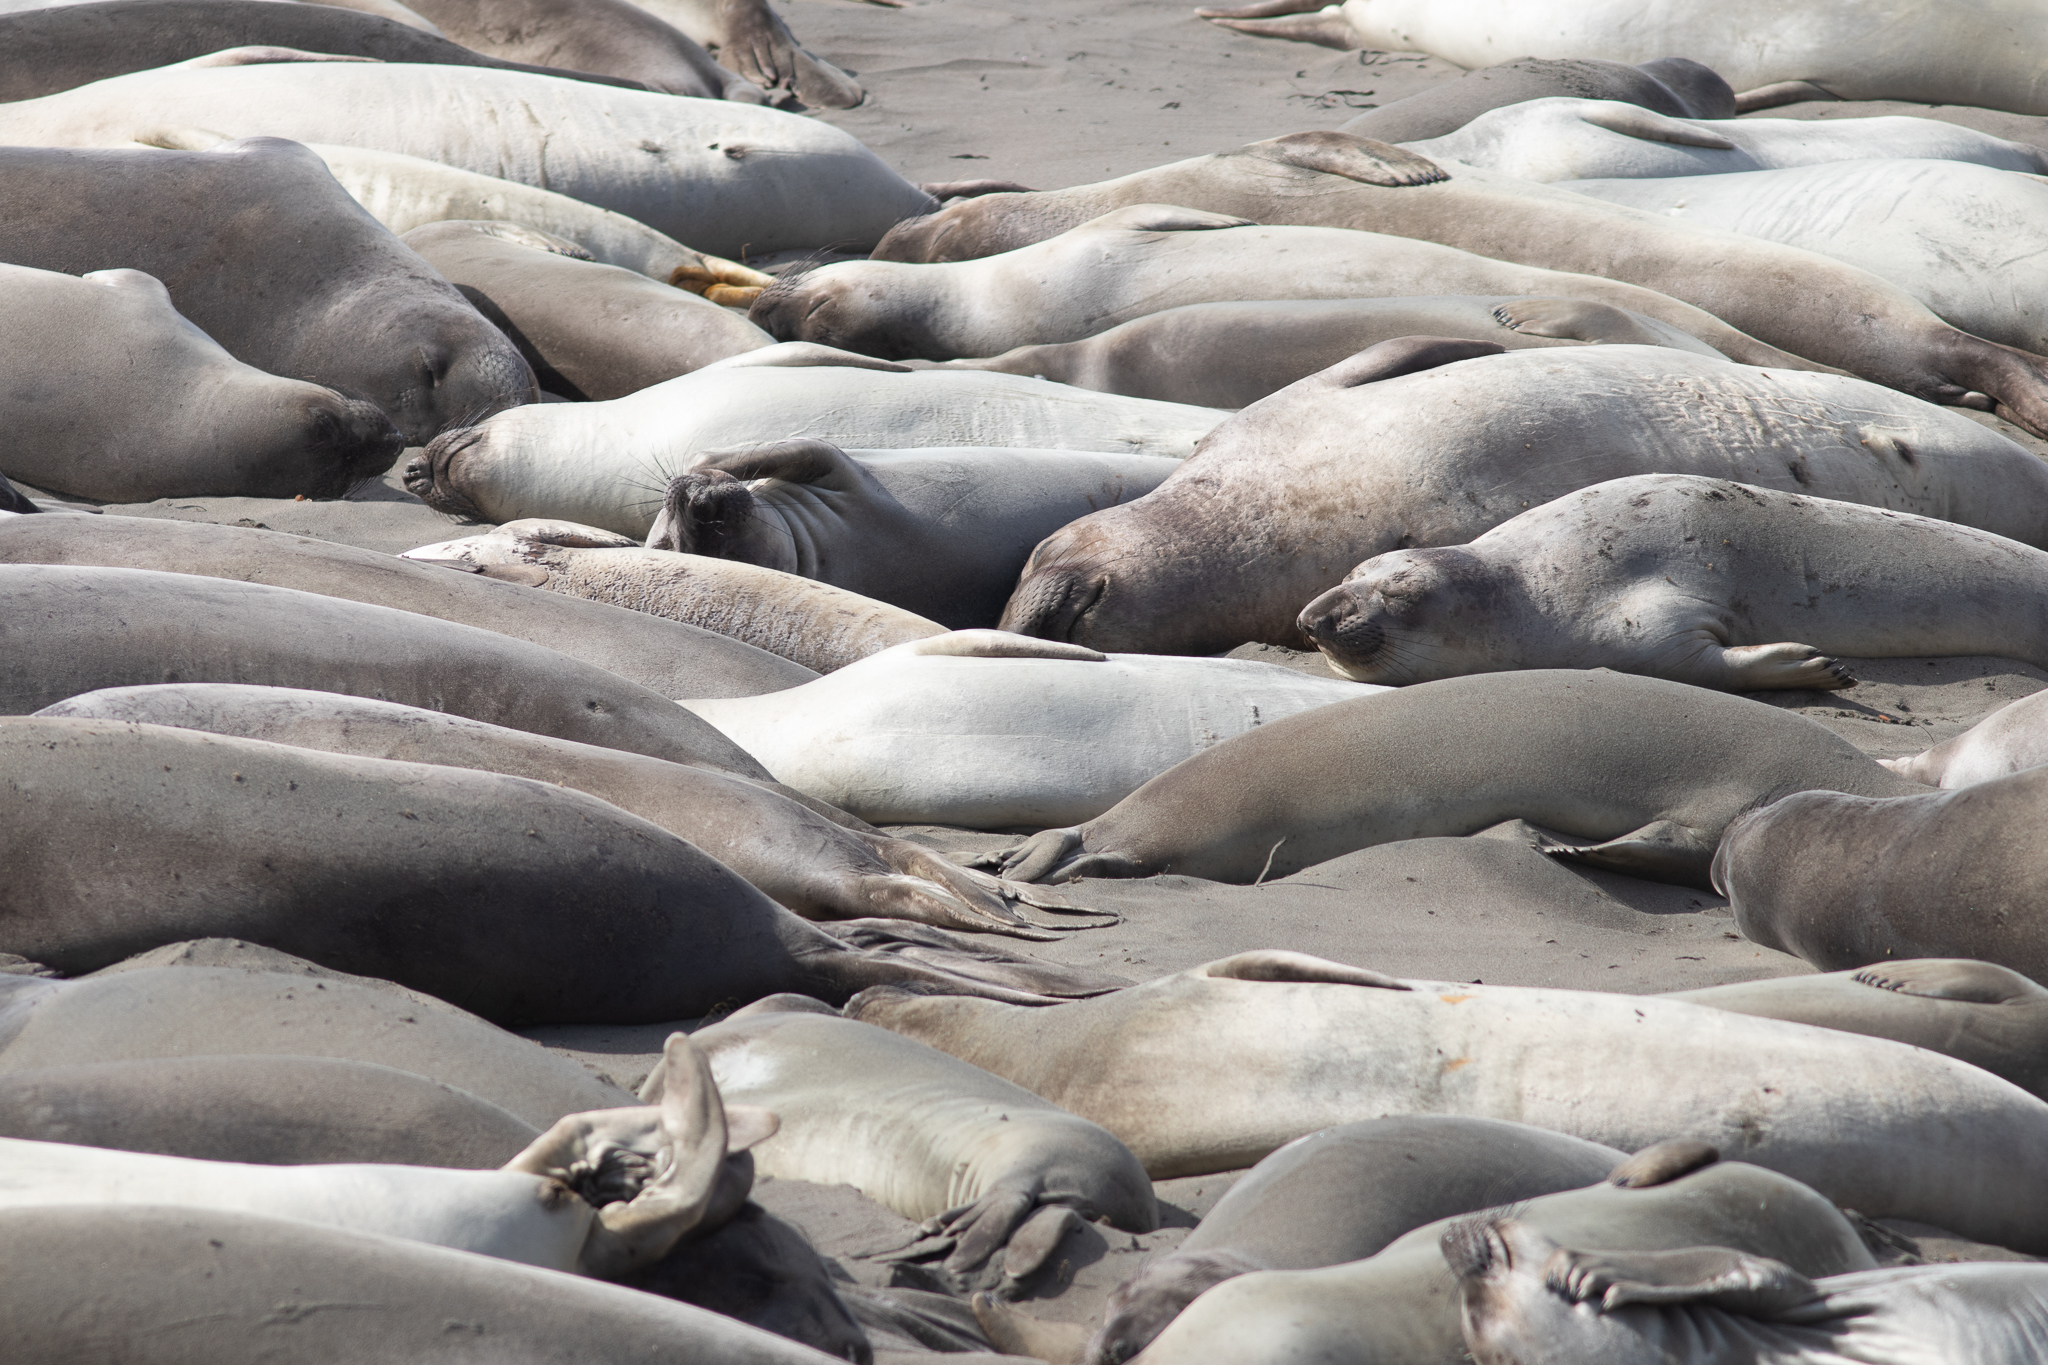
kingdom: Animalia
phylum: Chordata
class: Mammalia
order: Carnivora
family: Phocidae
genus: Mirounga
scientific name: Mirounga angustirostris
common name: Northern elephant seal
